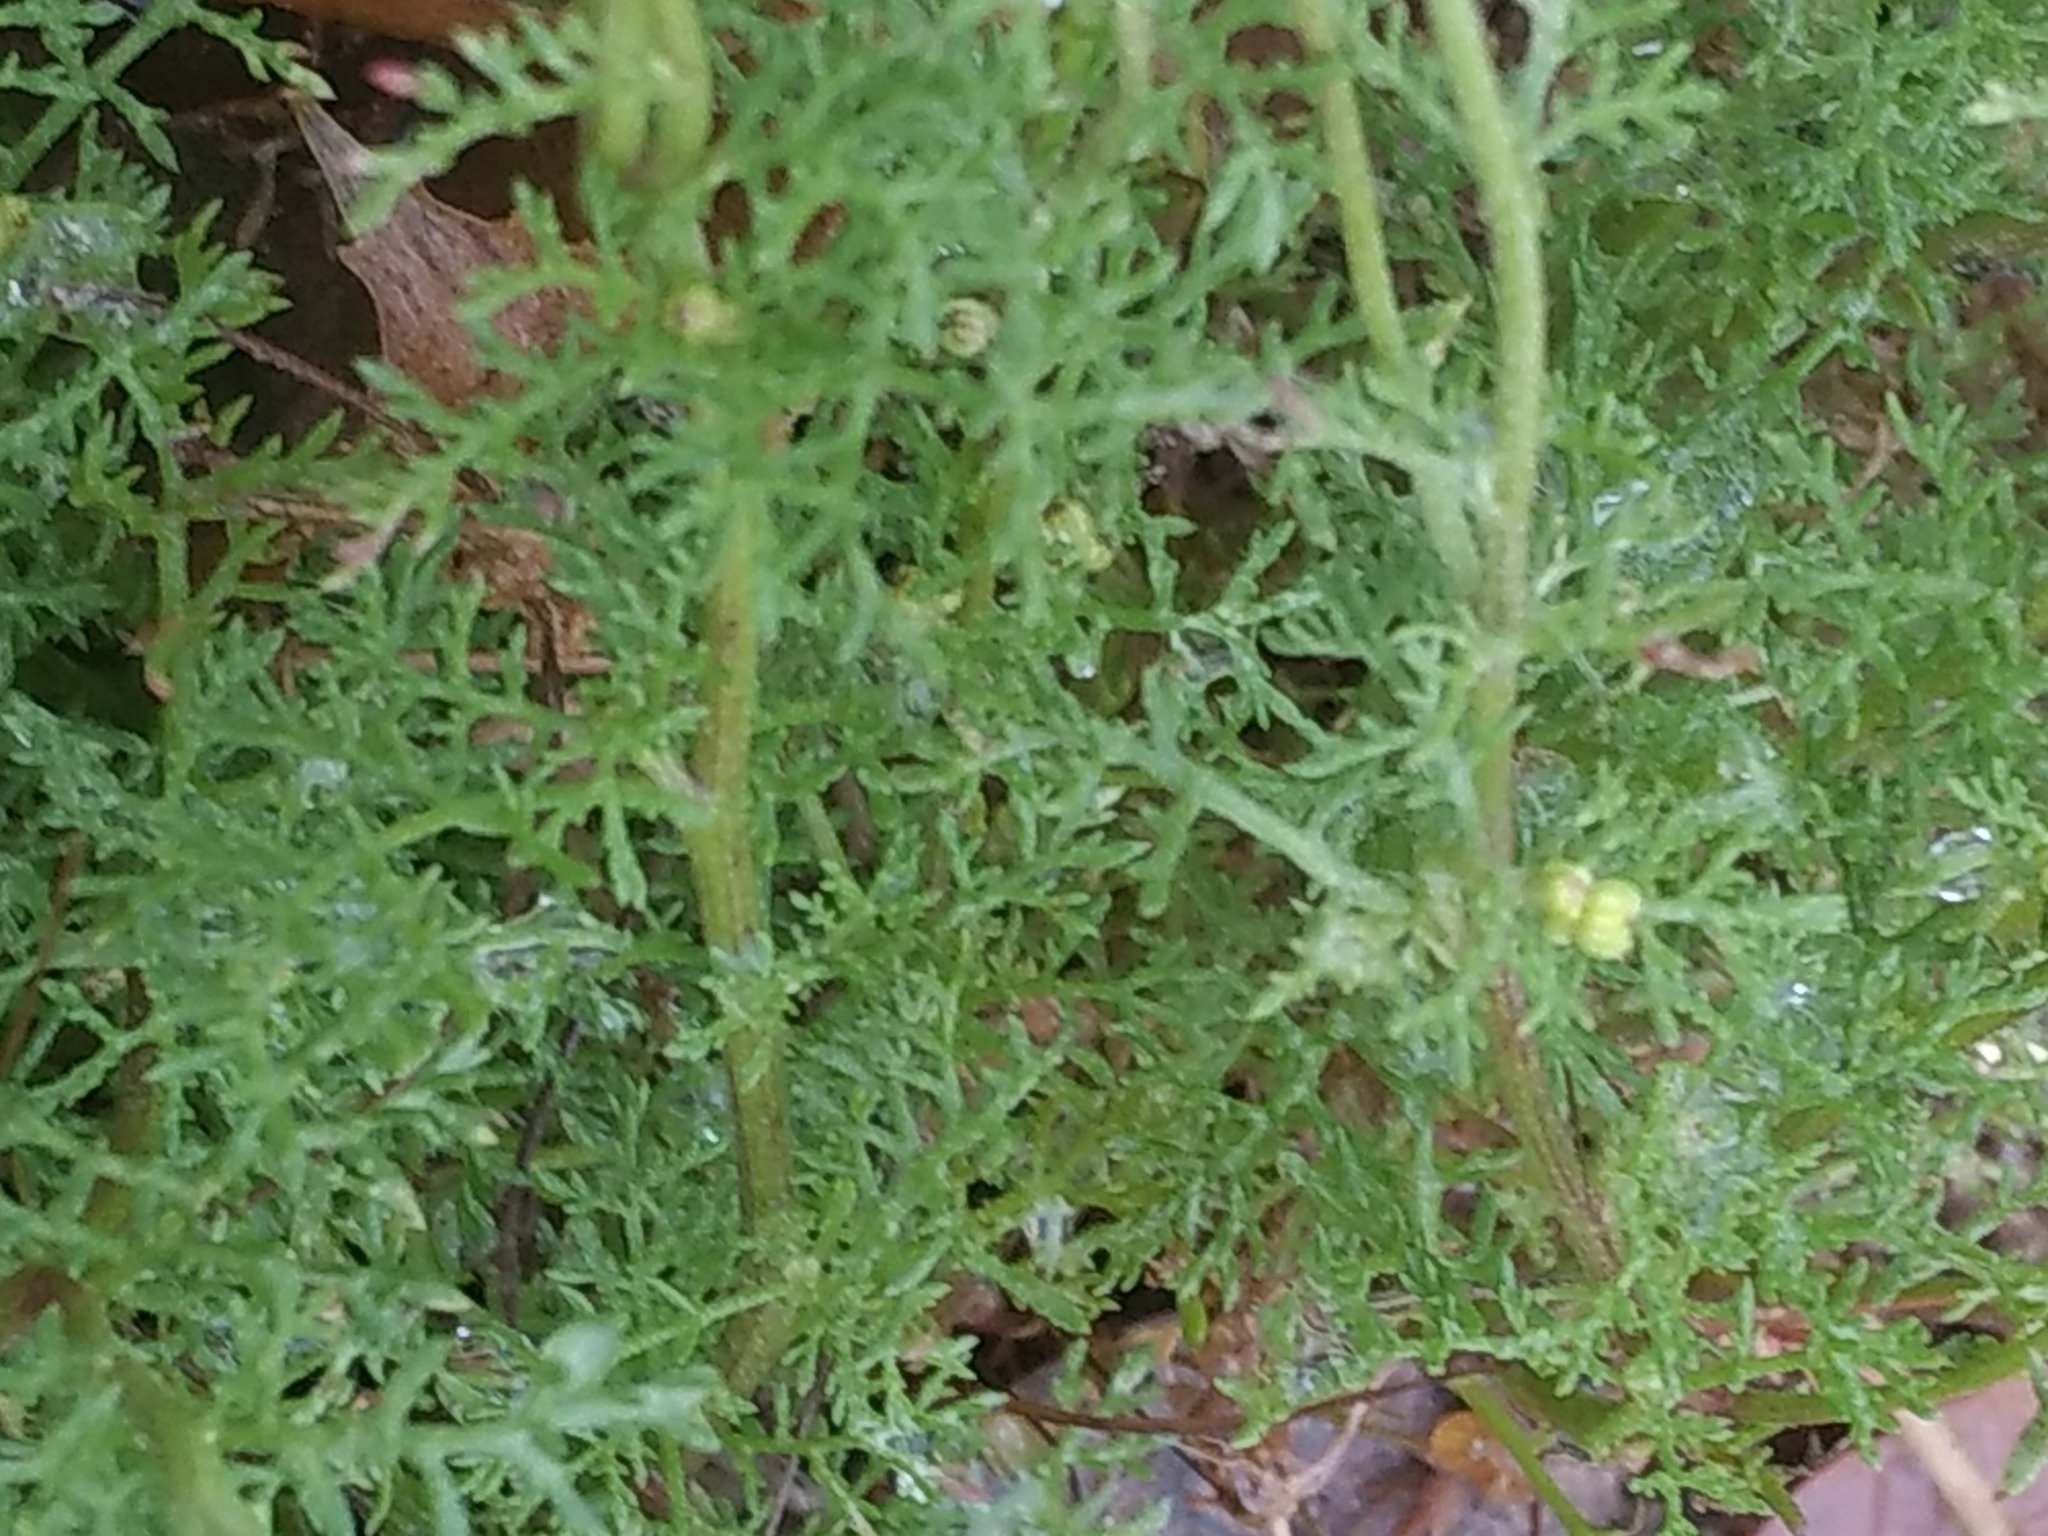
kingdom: Plantae
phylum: Tracheophyta
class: Magnoliopsida
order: Asterales
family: Asteraceae
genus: Oncosiphon
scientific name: Oncosiphon pilulifer
